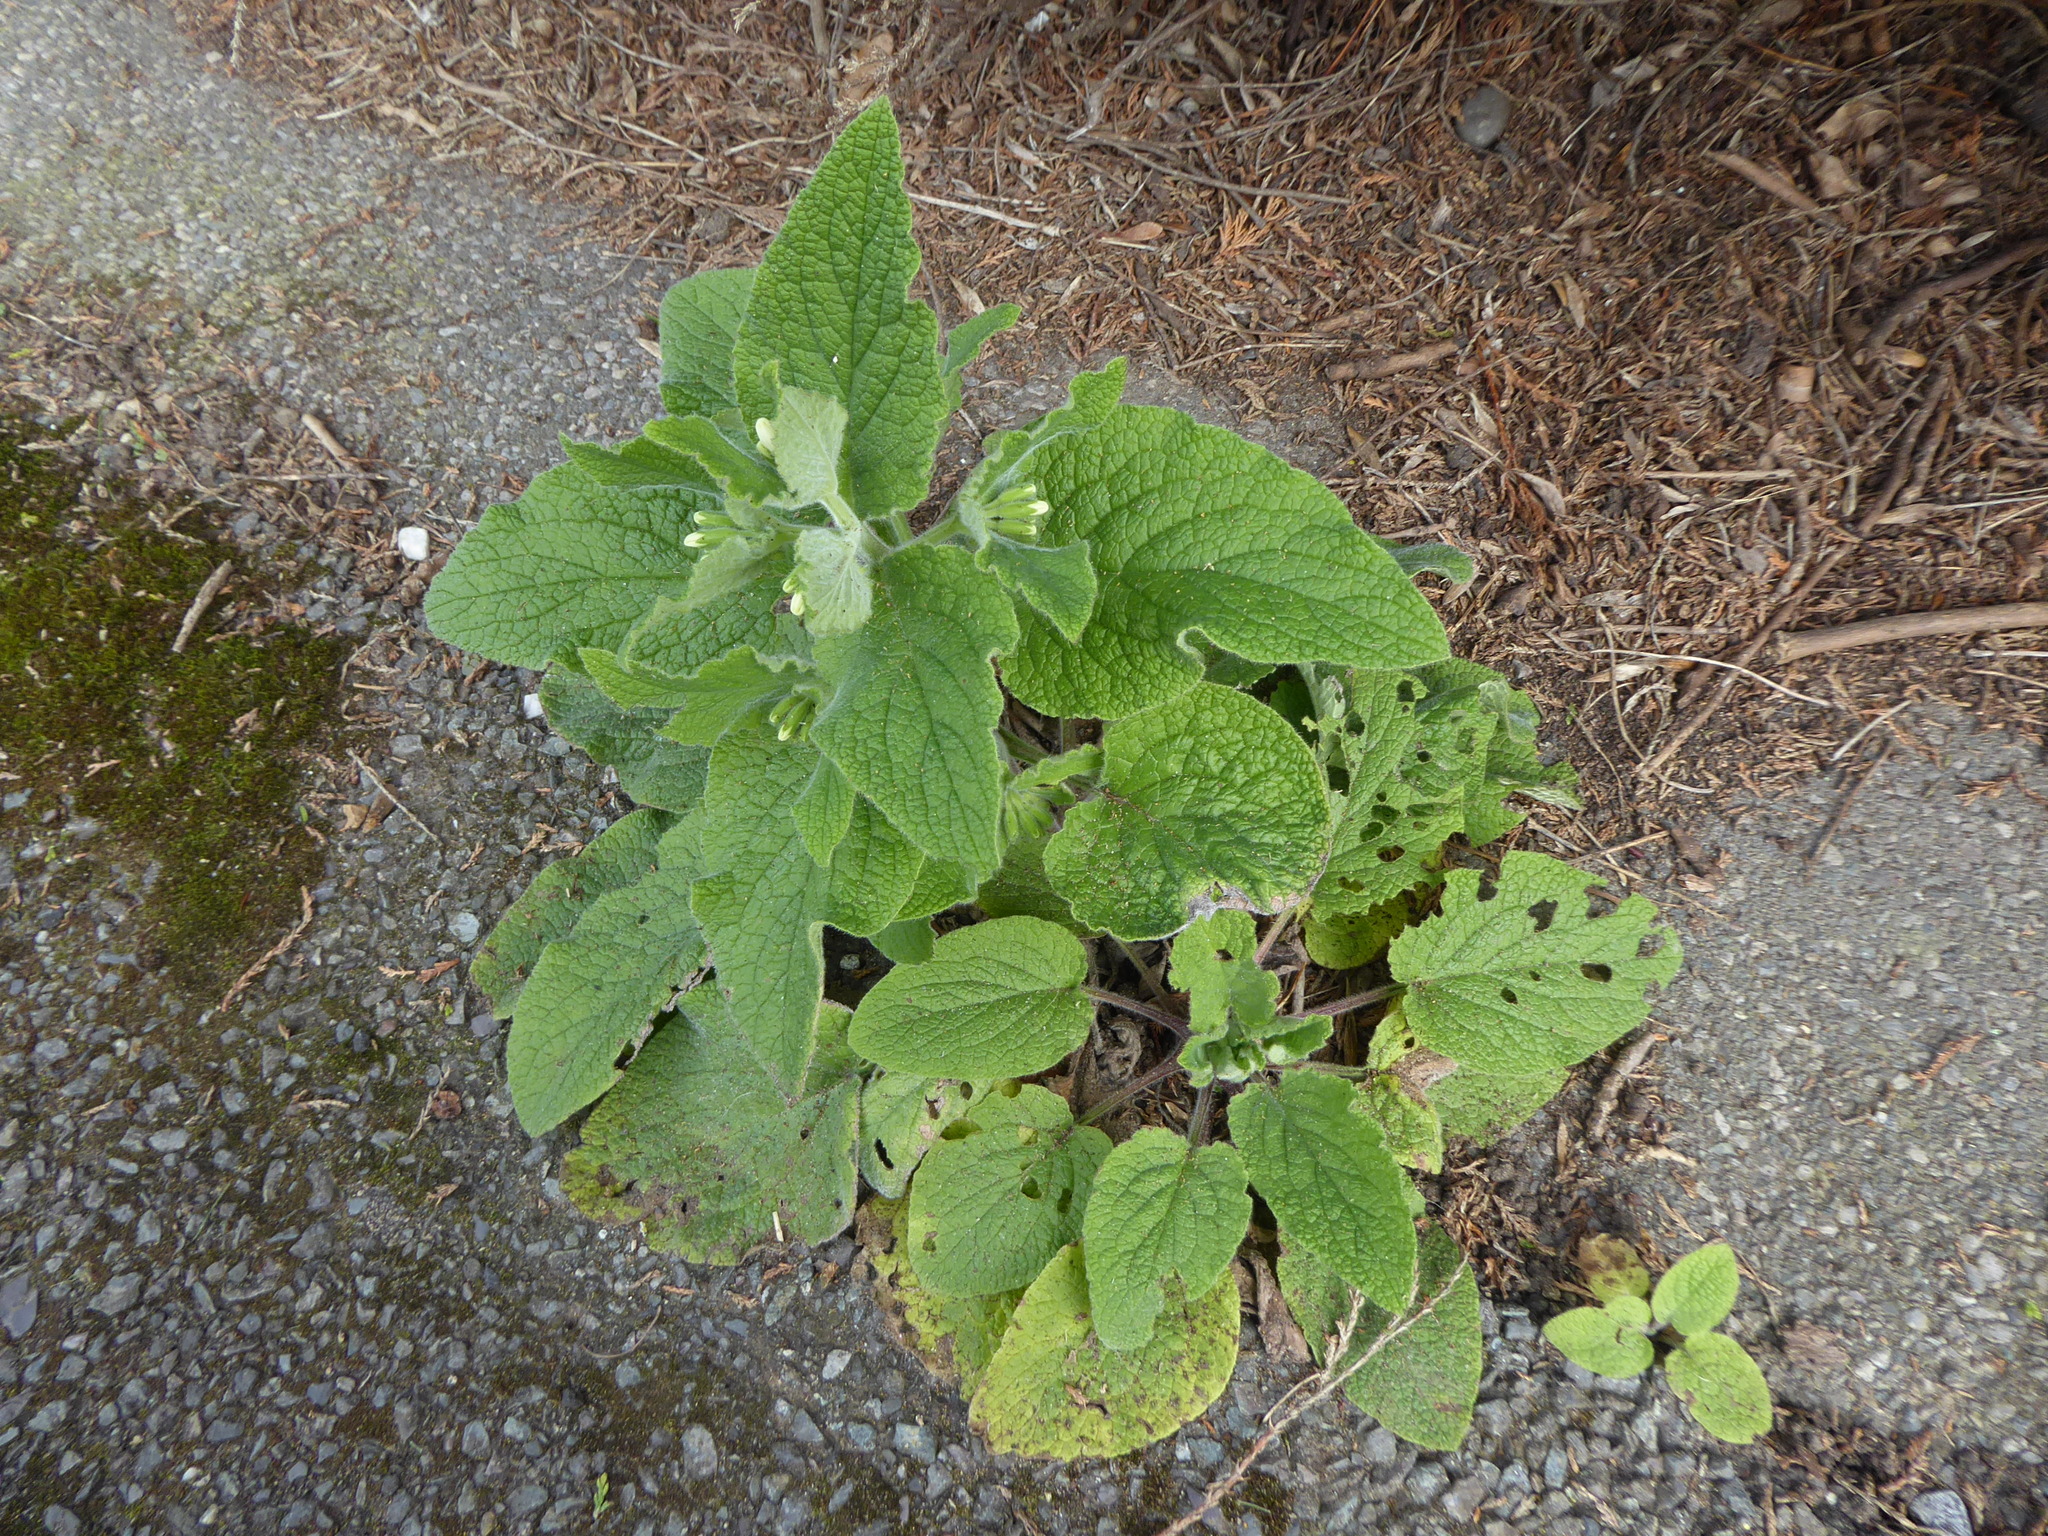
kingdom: Plantae
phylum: Tracheophyta
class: Magnoliopsida
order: Boraginales
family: Boraginaceae
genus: Symphytum
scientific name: Symphytum orientale
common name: White comfrey
